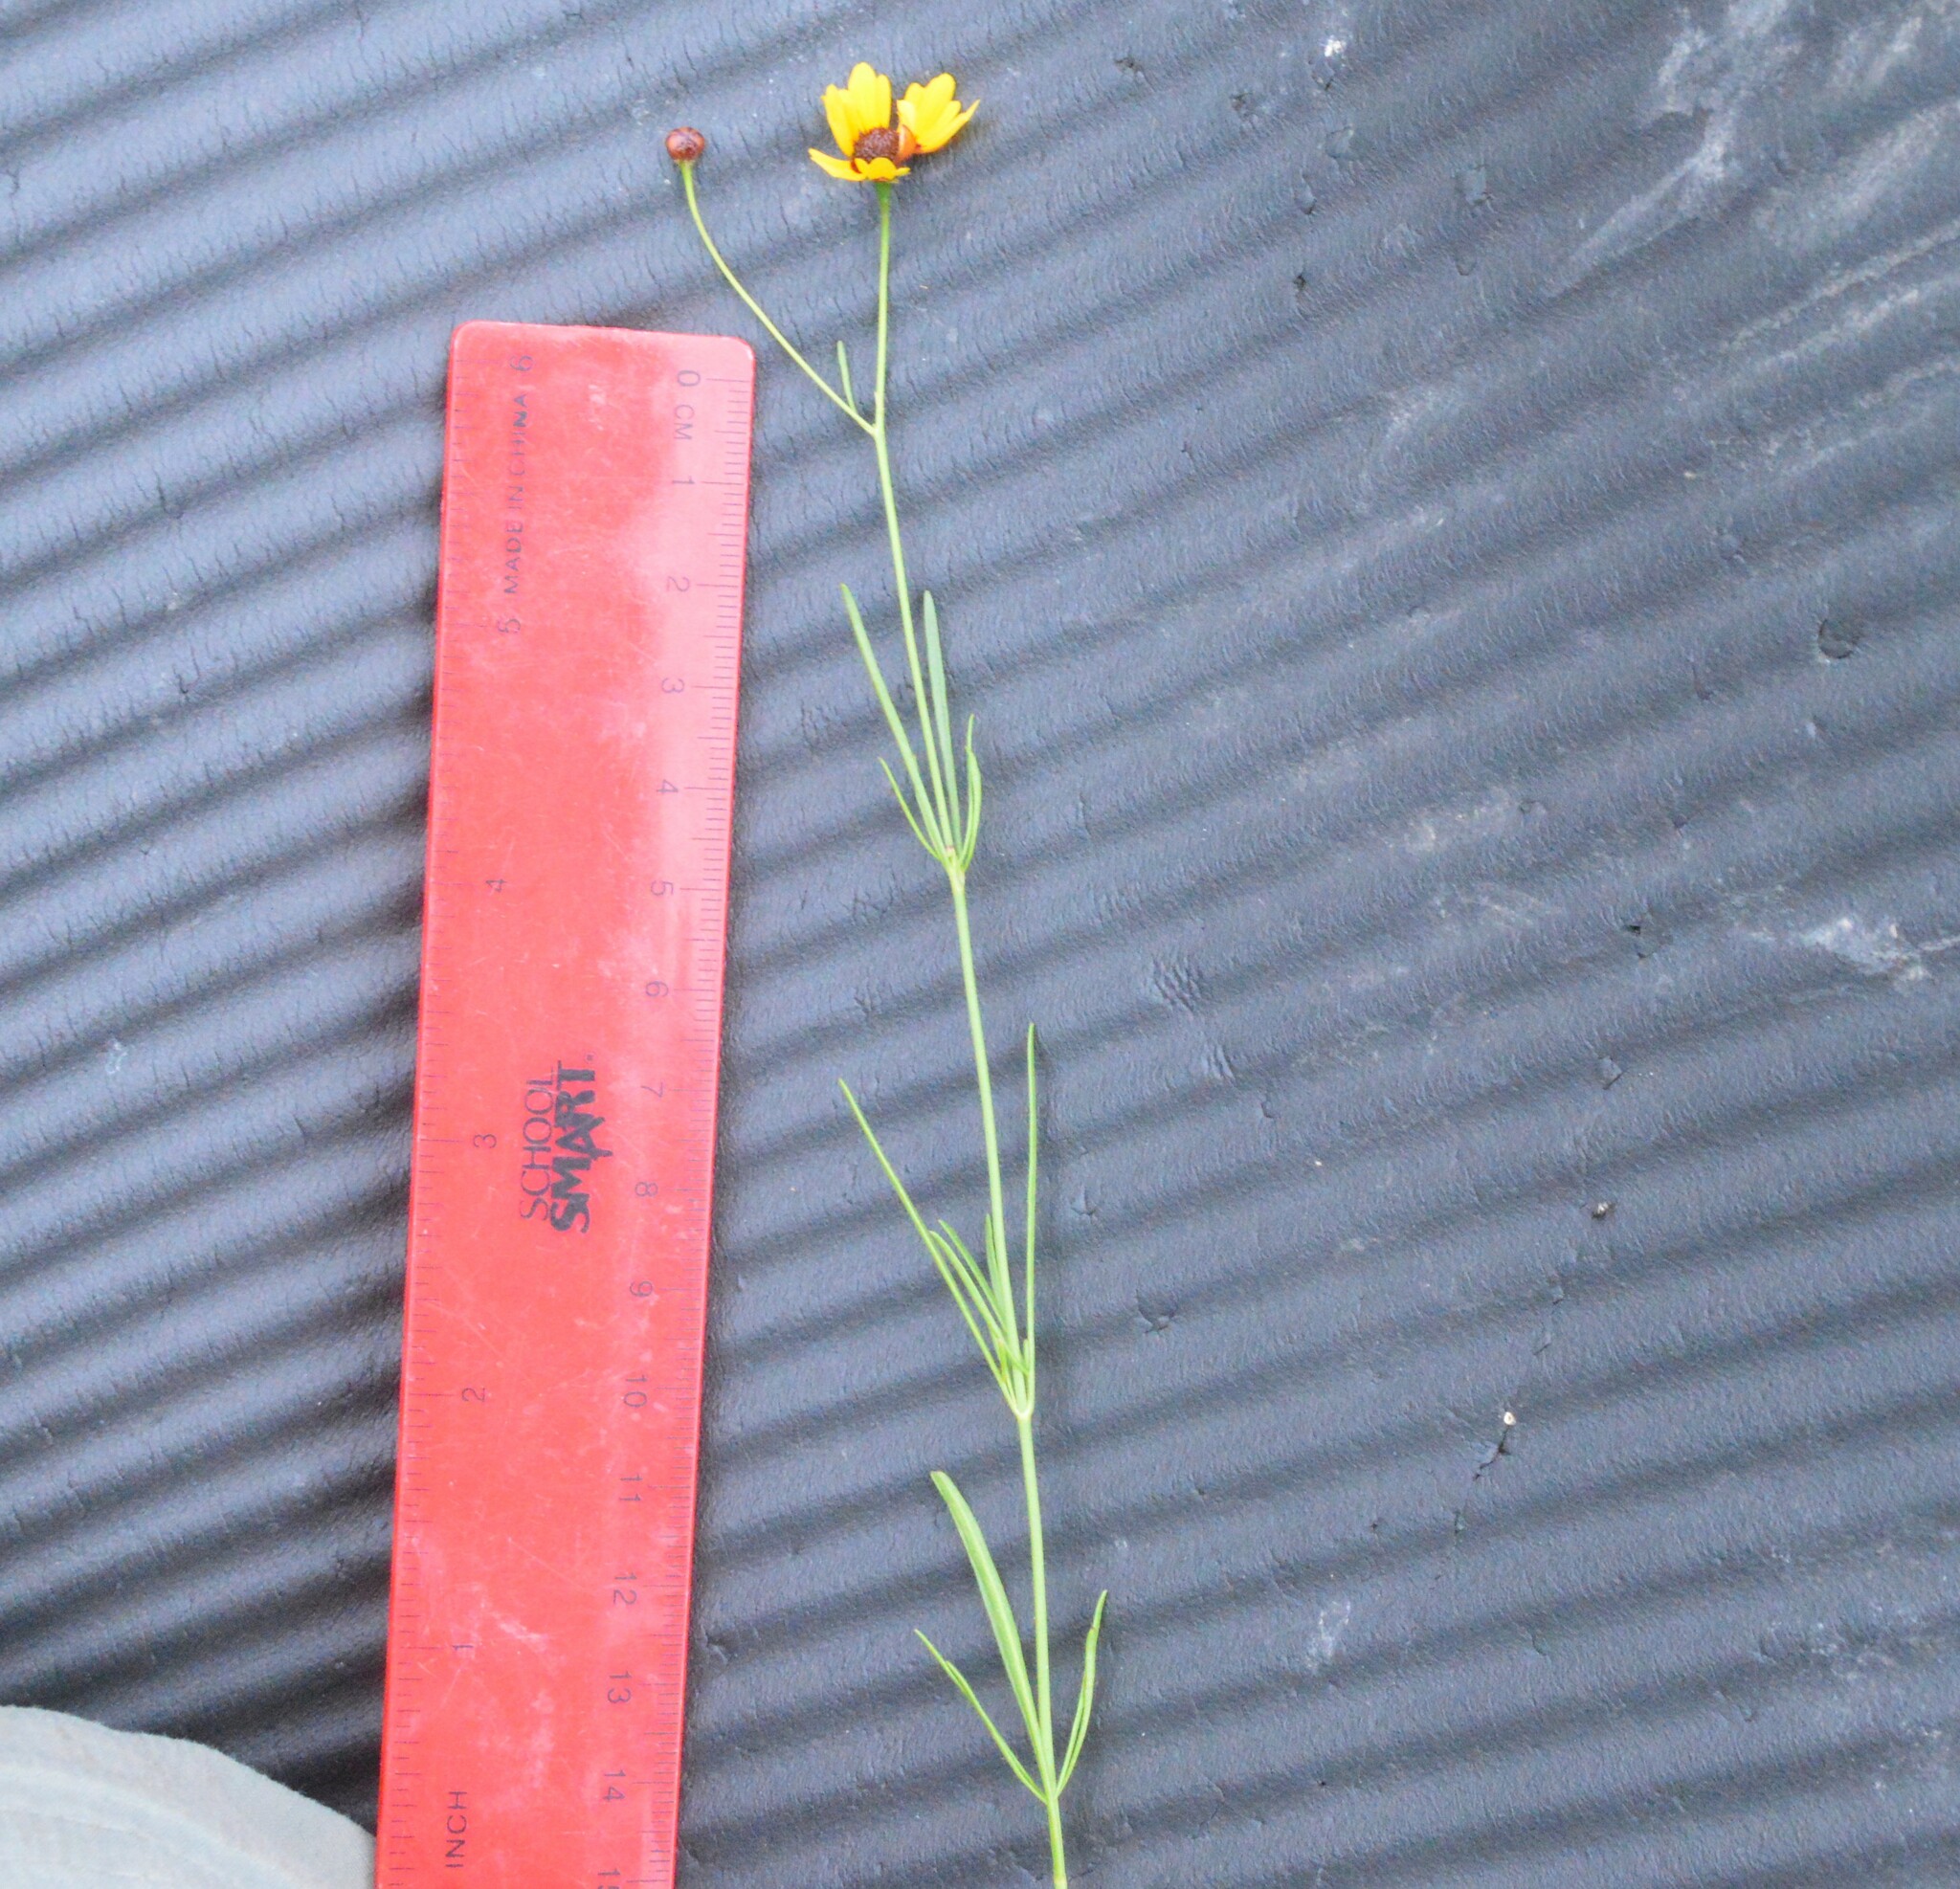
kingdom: Plantae
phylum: Tracheophyta
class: Magnoliopsida
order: Asterales
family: Asteraceae
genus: Coreopsis
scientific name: Coreopsis tinctoria
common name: Garden tickseed
